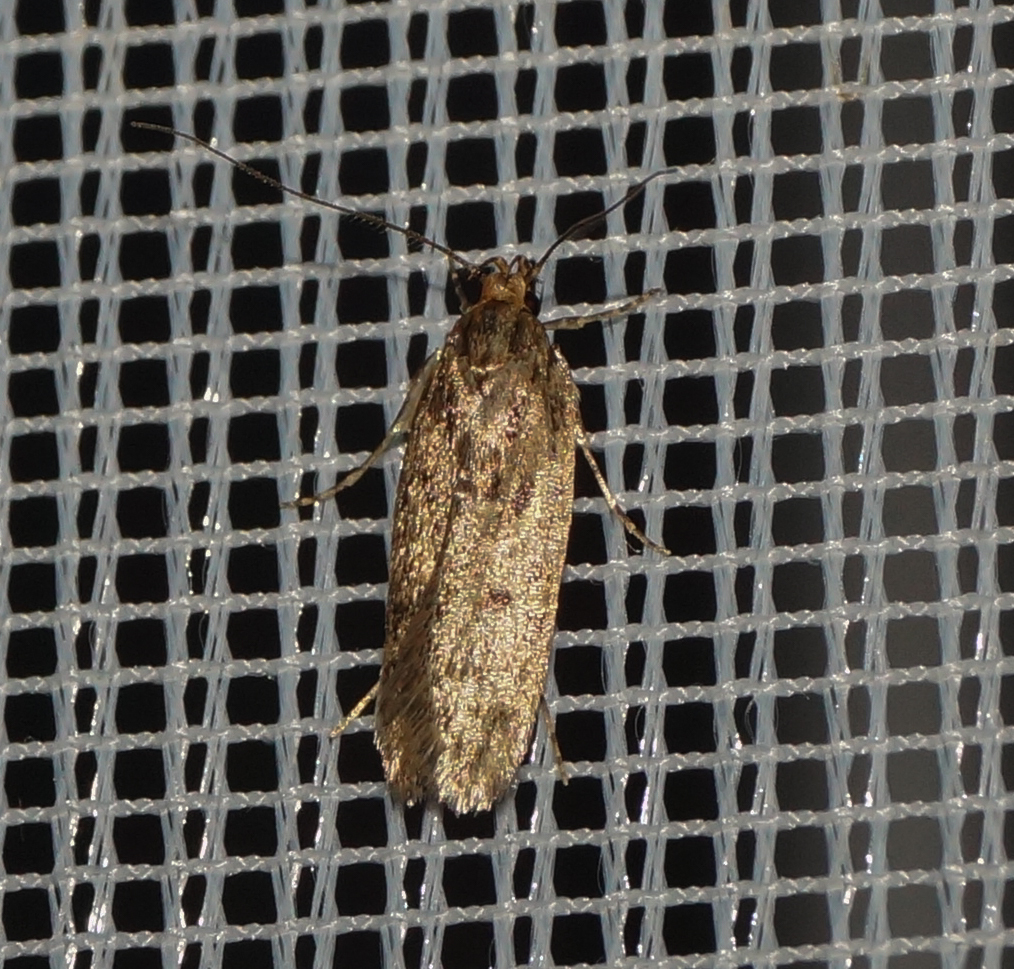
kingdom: Animalia
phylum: Arthropoda
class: Insecta
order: Lepidoptera
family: Oecophoridae
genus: Hofmannophila
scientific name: Hofmannophila pseudospretella
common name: Brown house moth
